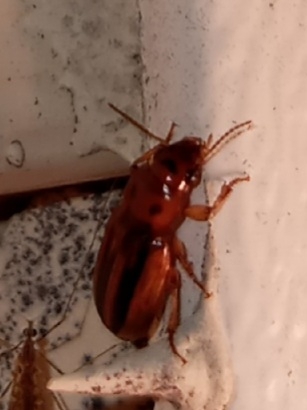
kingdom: Animalia
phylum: Arthropoda
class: Insecta
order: Coleoptera
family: Carabidae
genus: Stenolophus
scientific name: Stenolophus lineola
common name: Lined stenolophus
